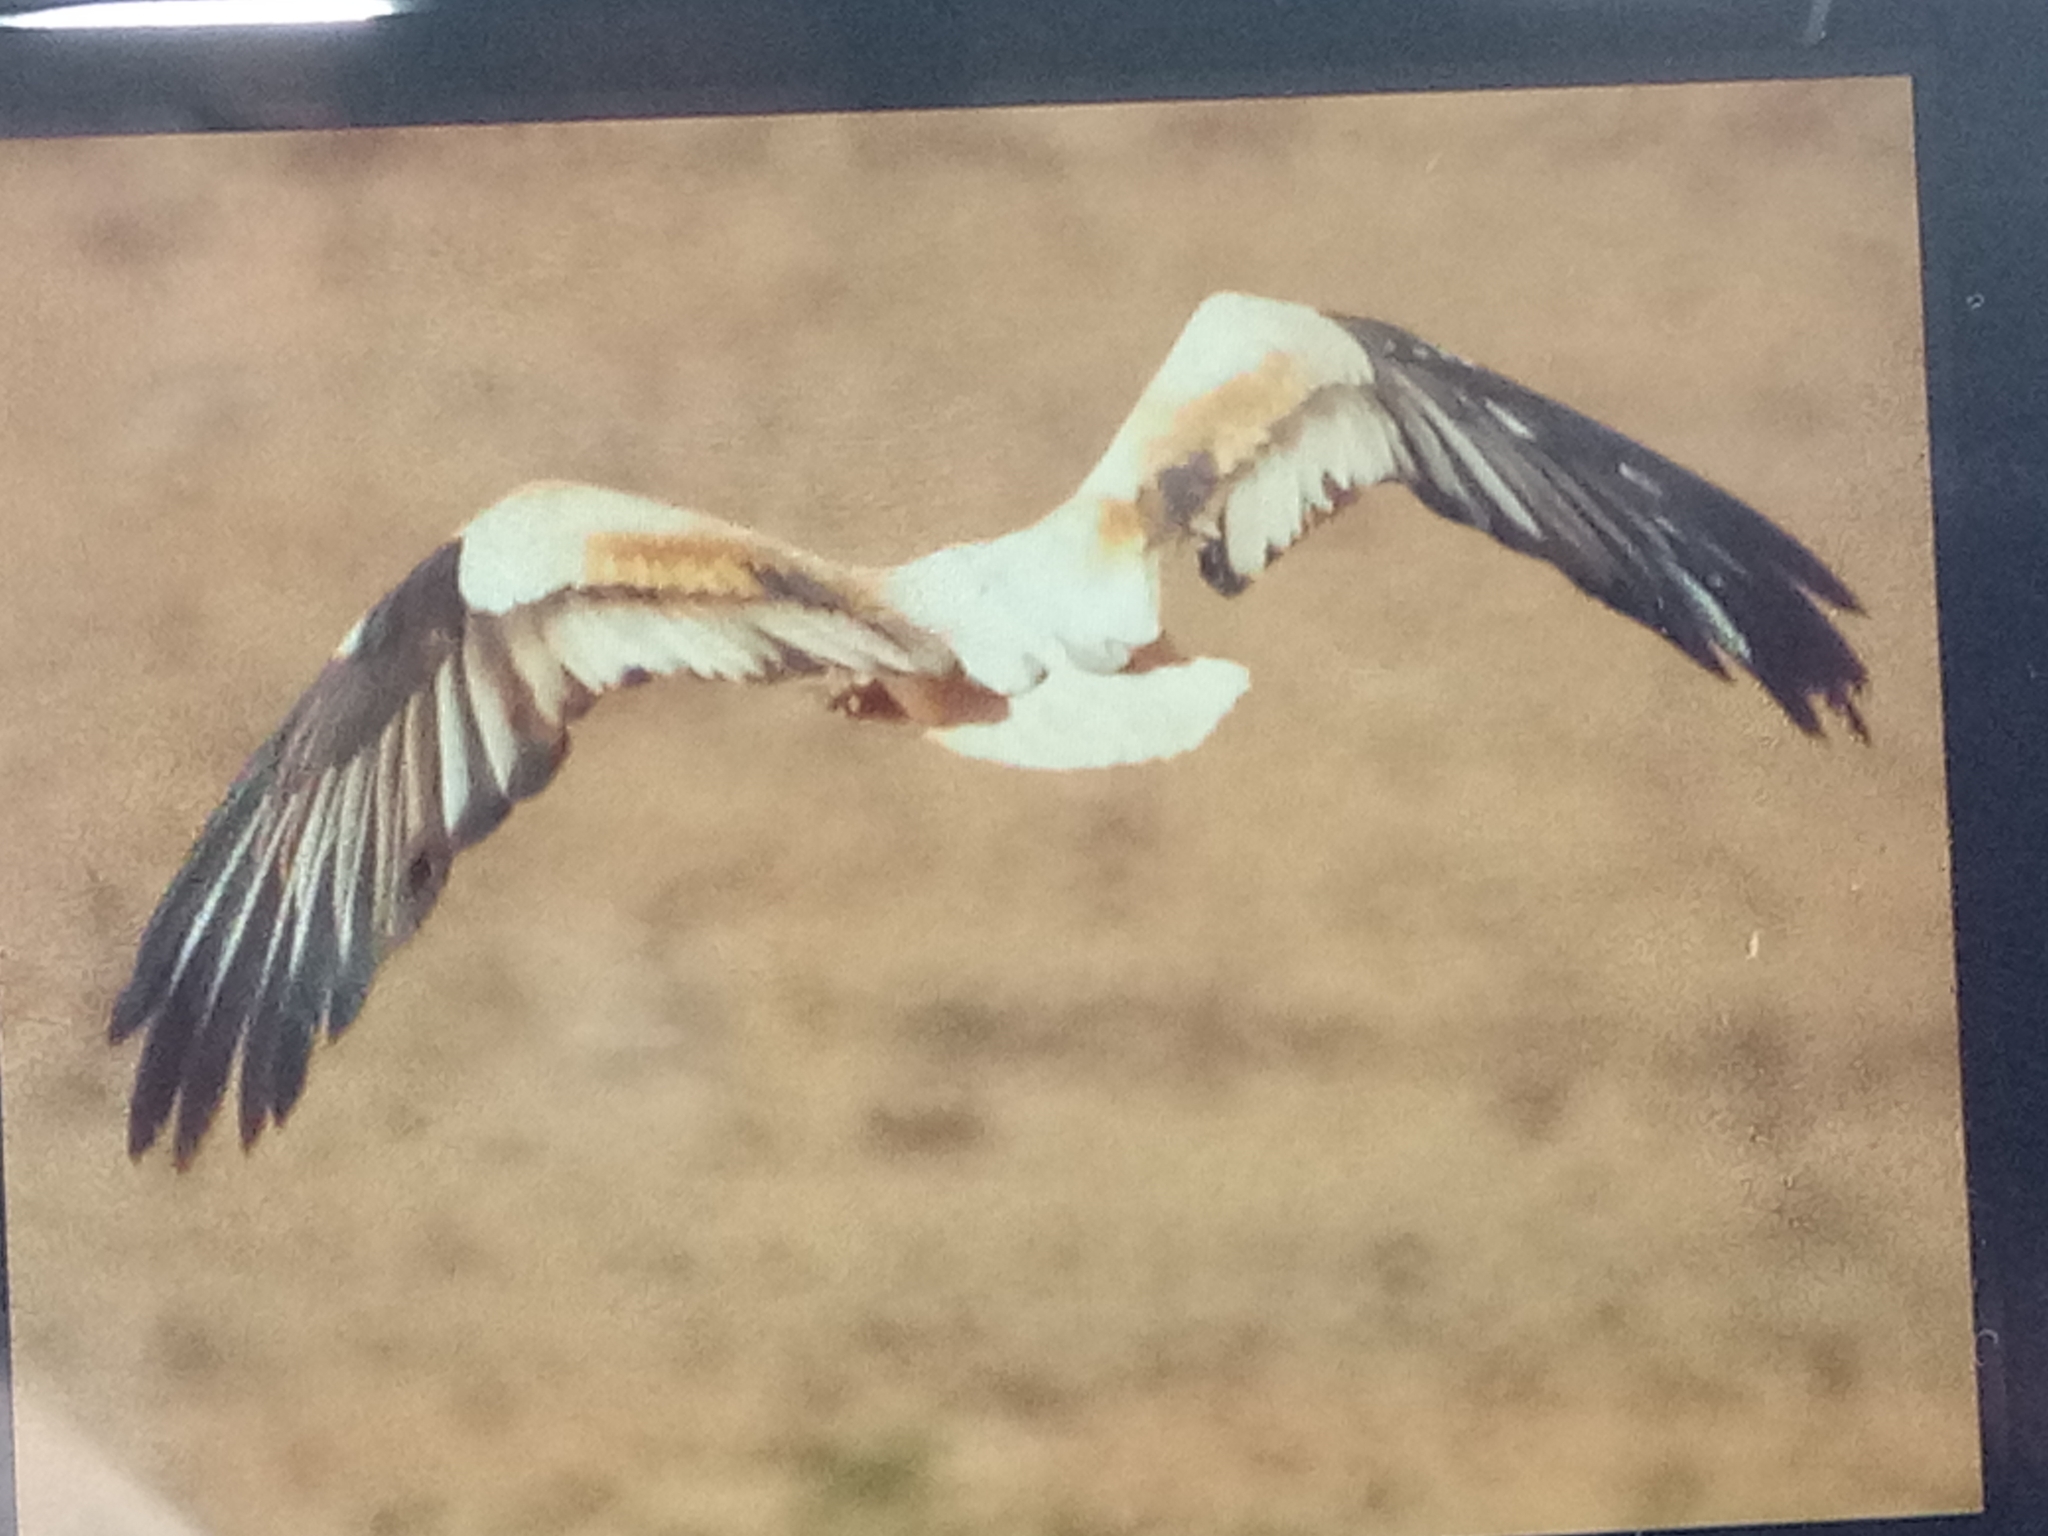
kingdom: Animalia
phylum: Chordata
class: Aves
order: Accipitriformes
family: Accipitridae
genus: Neophron
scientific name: Neophron percnopterus
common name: Egyptian vulture
